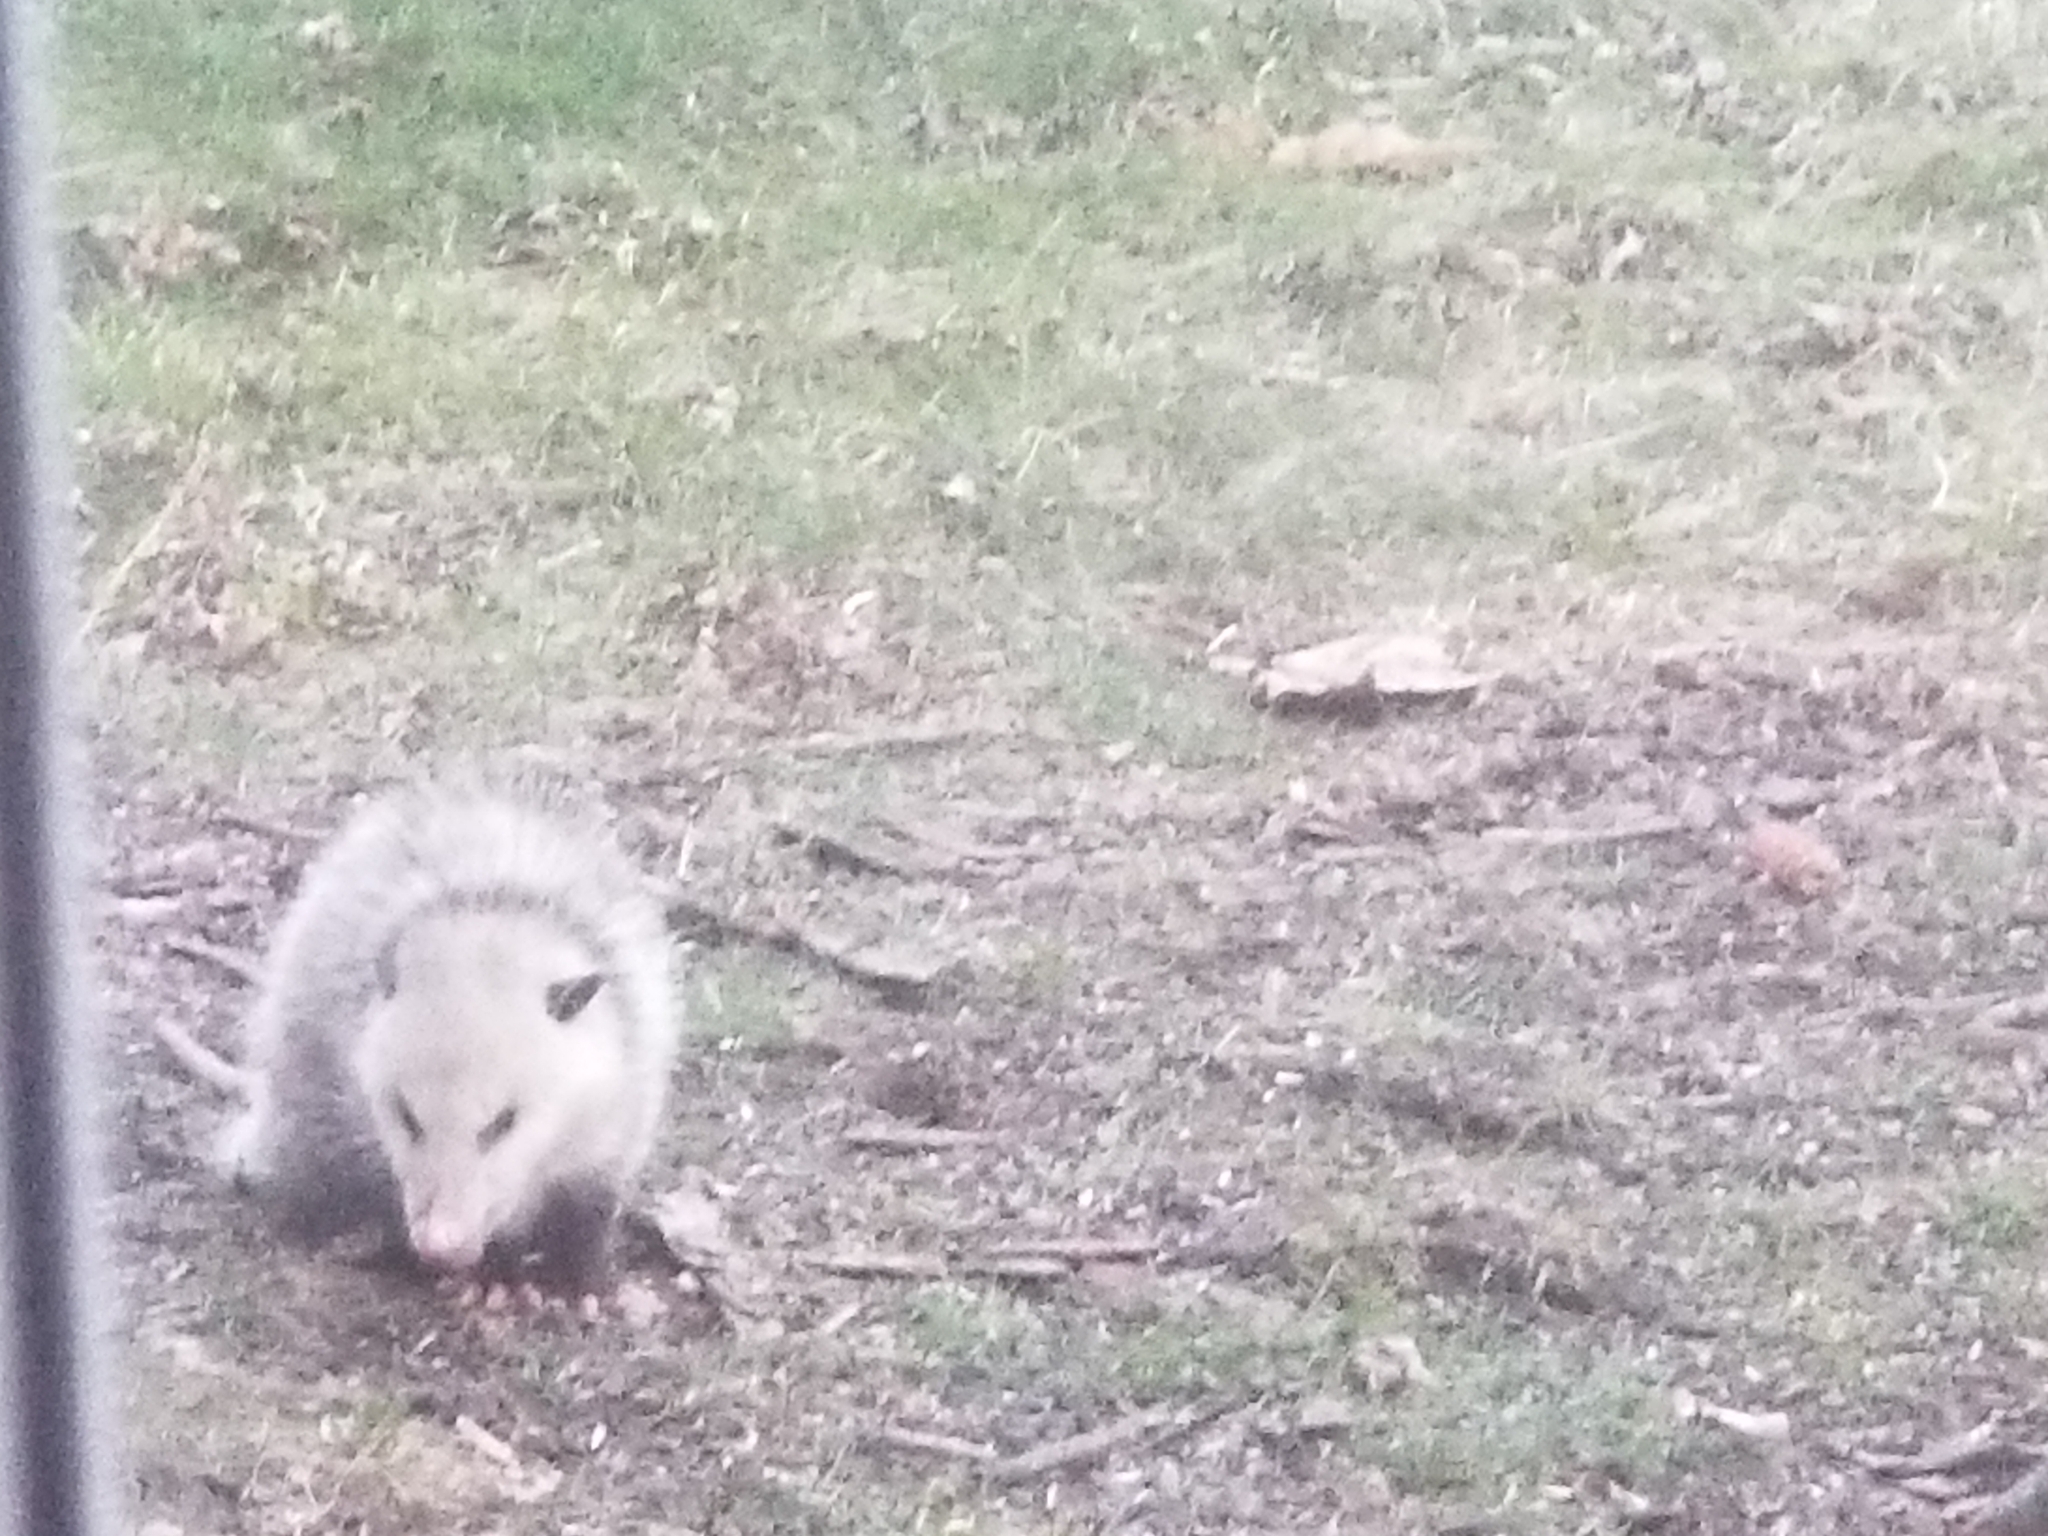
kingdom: Animalia
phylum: Chordata
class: Mammalia
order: Didelphimorphia
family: Didelphidae
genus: Didelphis
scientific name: Didelphis virginiana
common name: Virginia opossum
